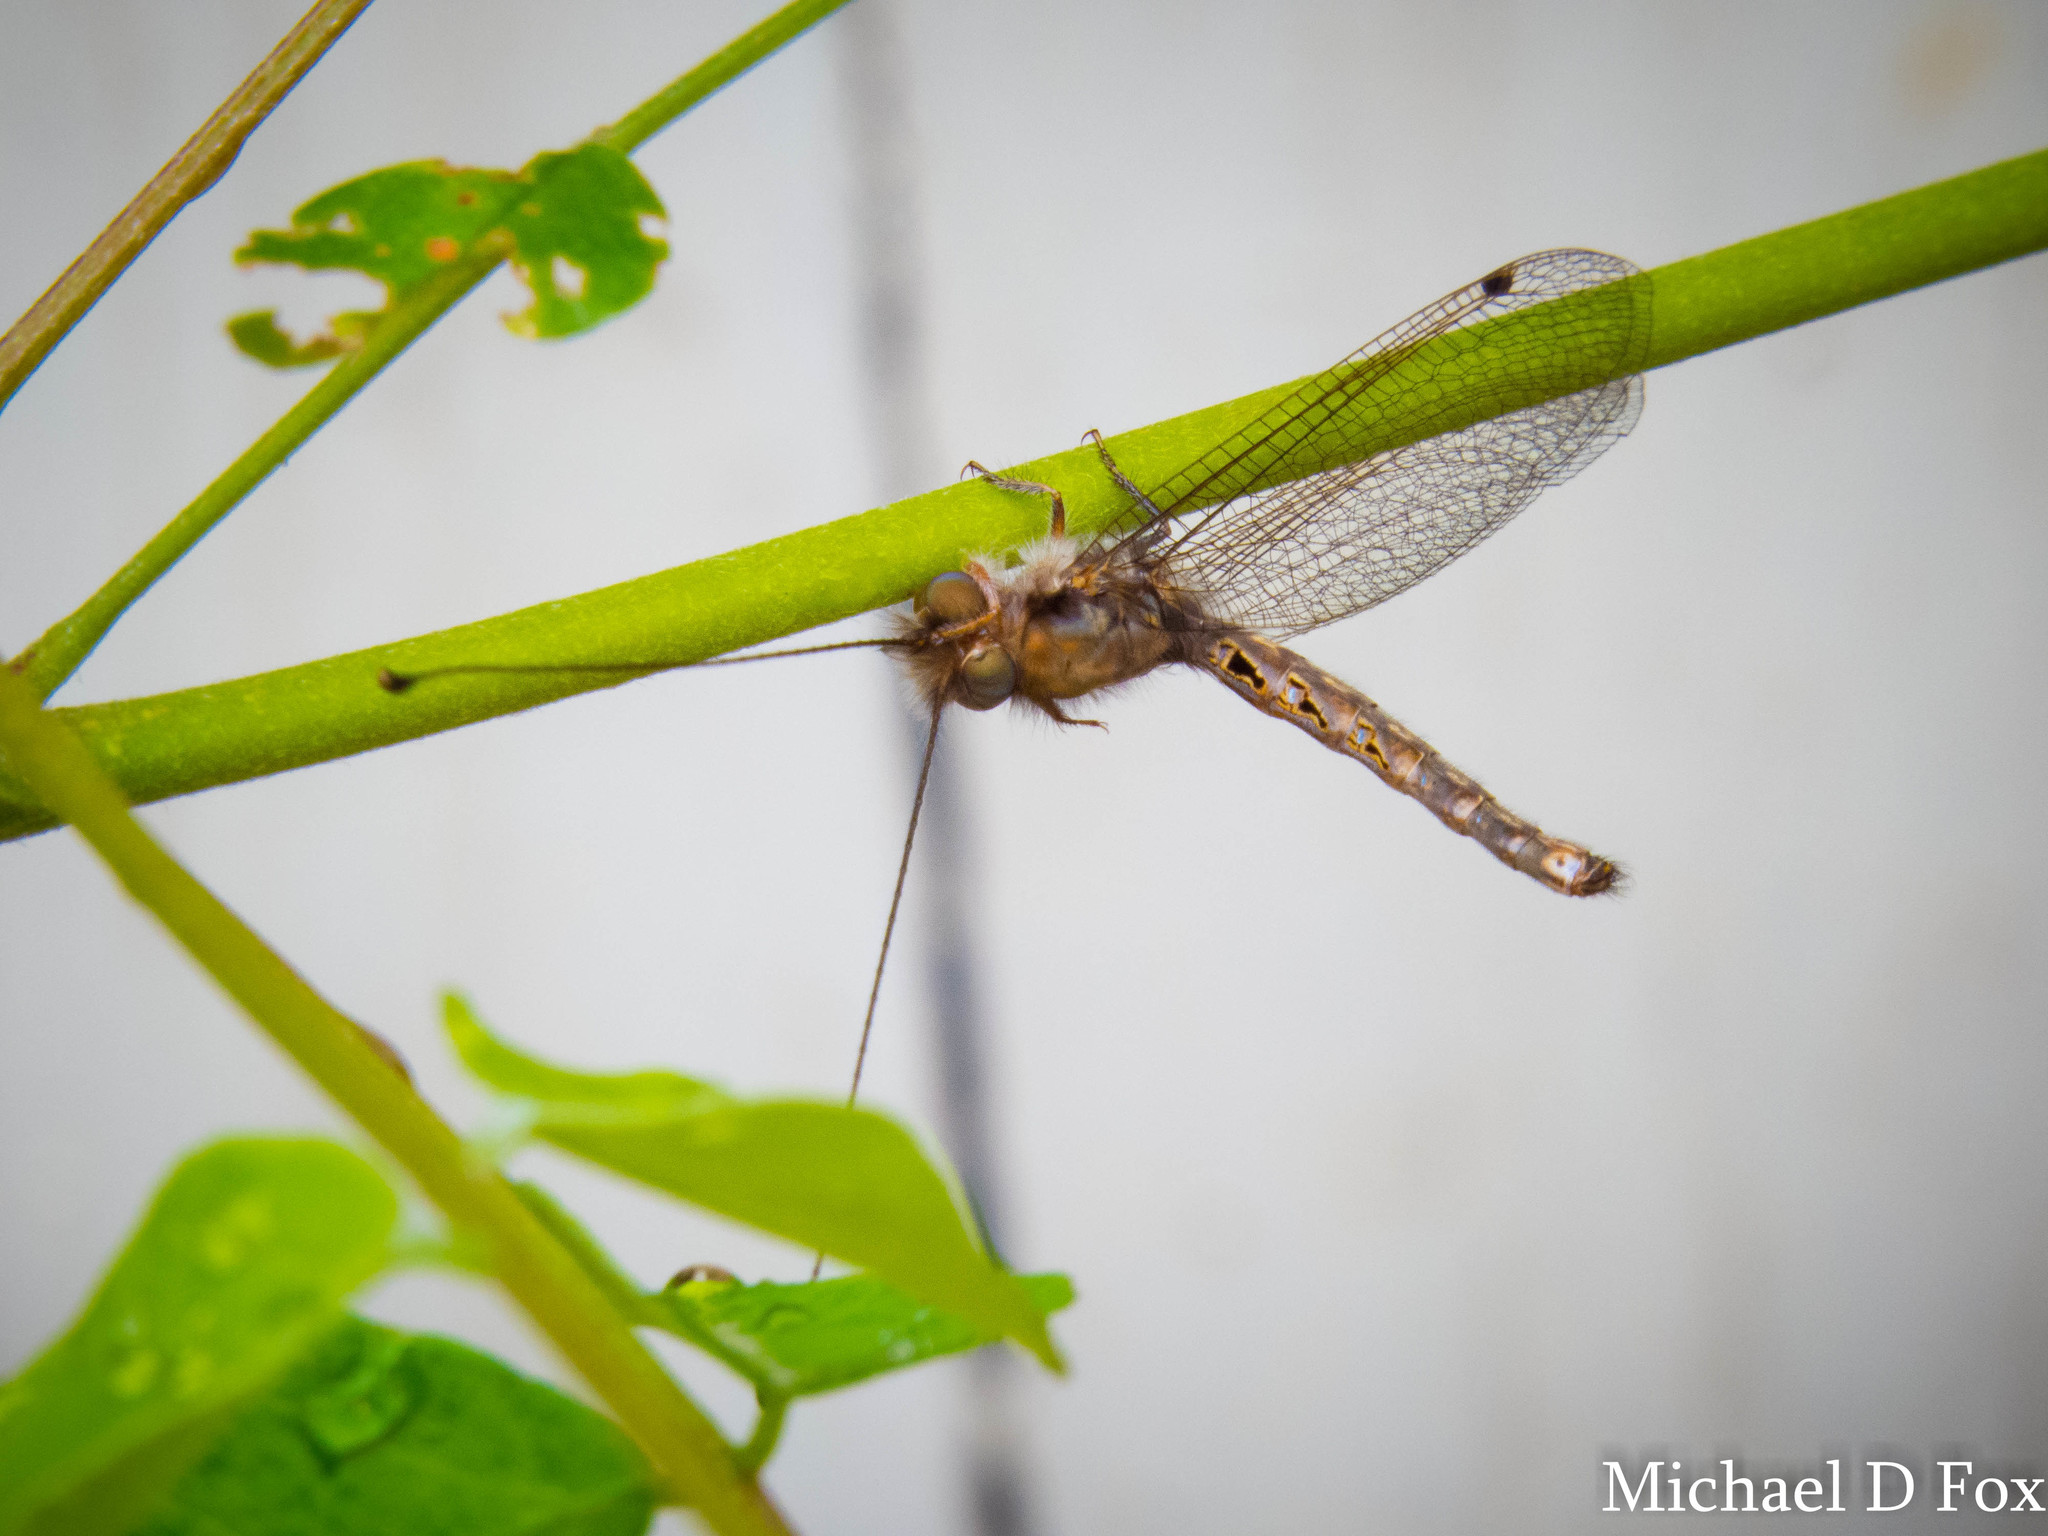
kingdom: Animalia
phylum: Arthropoda
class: Insecta
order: Neuroptera
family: Ascalaphidae
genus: Ululodes
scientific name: Ululodes macleayanus
